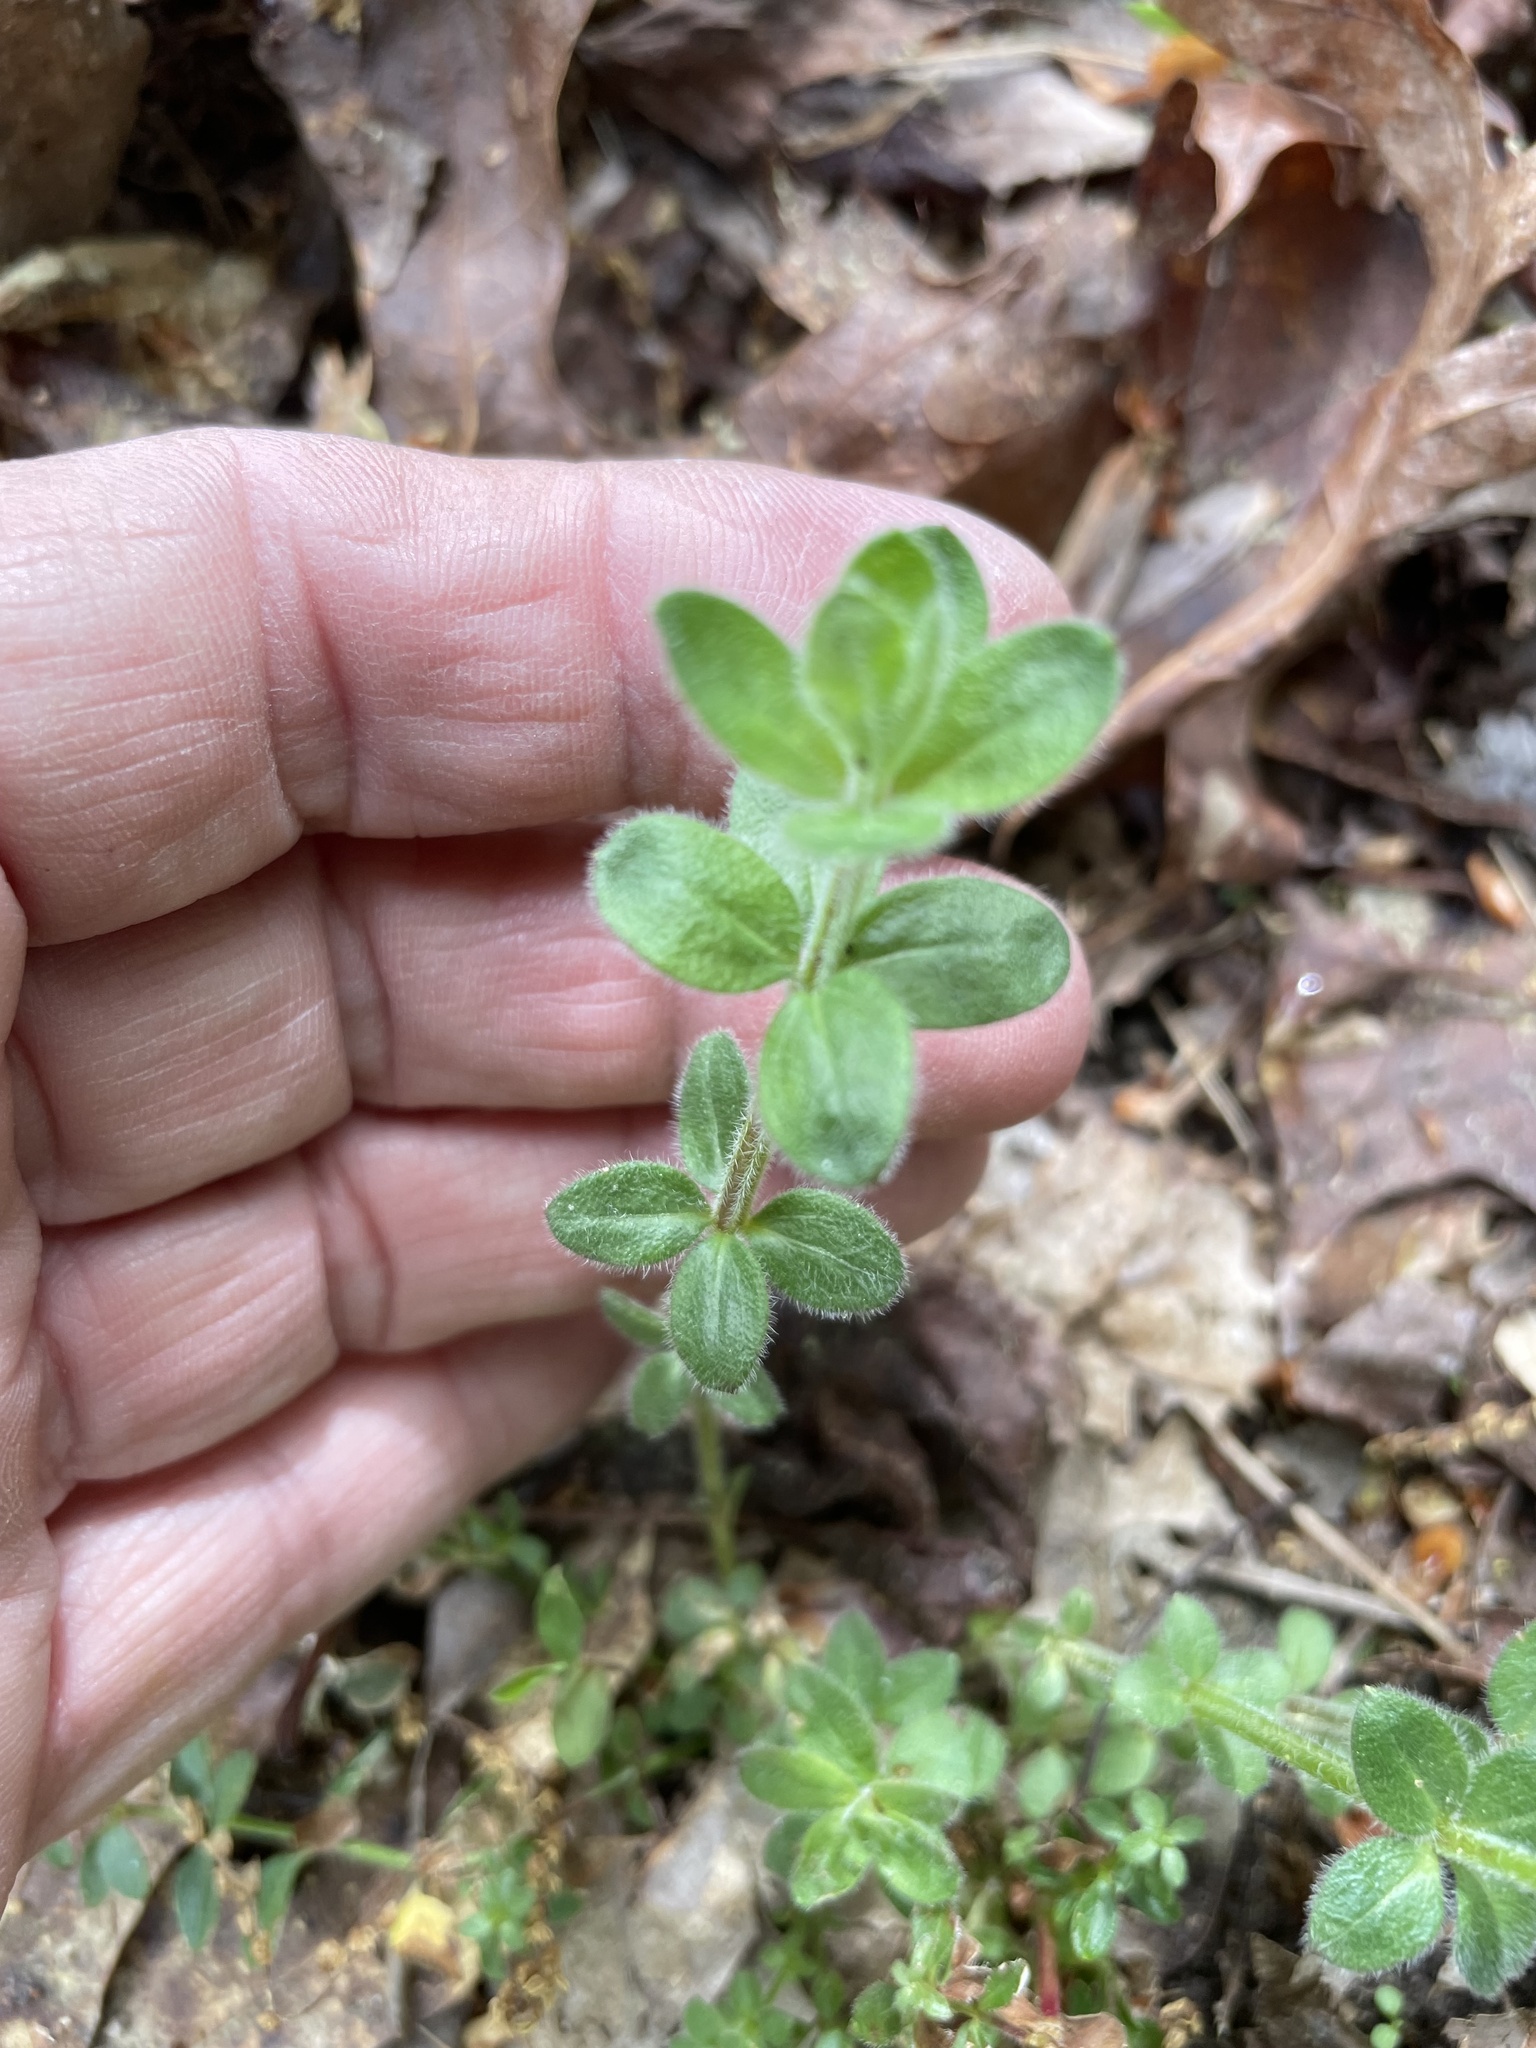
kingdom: Plantae
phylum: Tracheophyta
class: Magnoliopsida
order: Gentianales
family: Rubiaceae
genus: Galium
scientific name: Galium pilosum
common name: Hairy bedstraw
